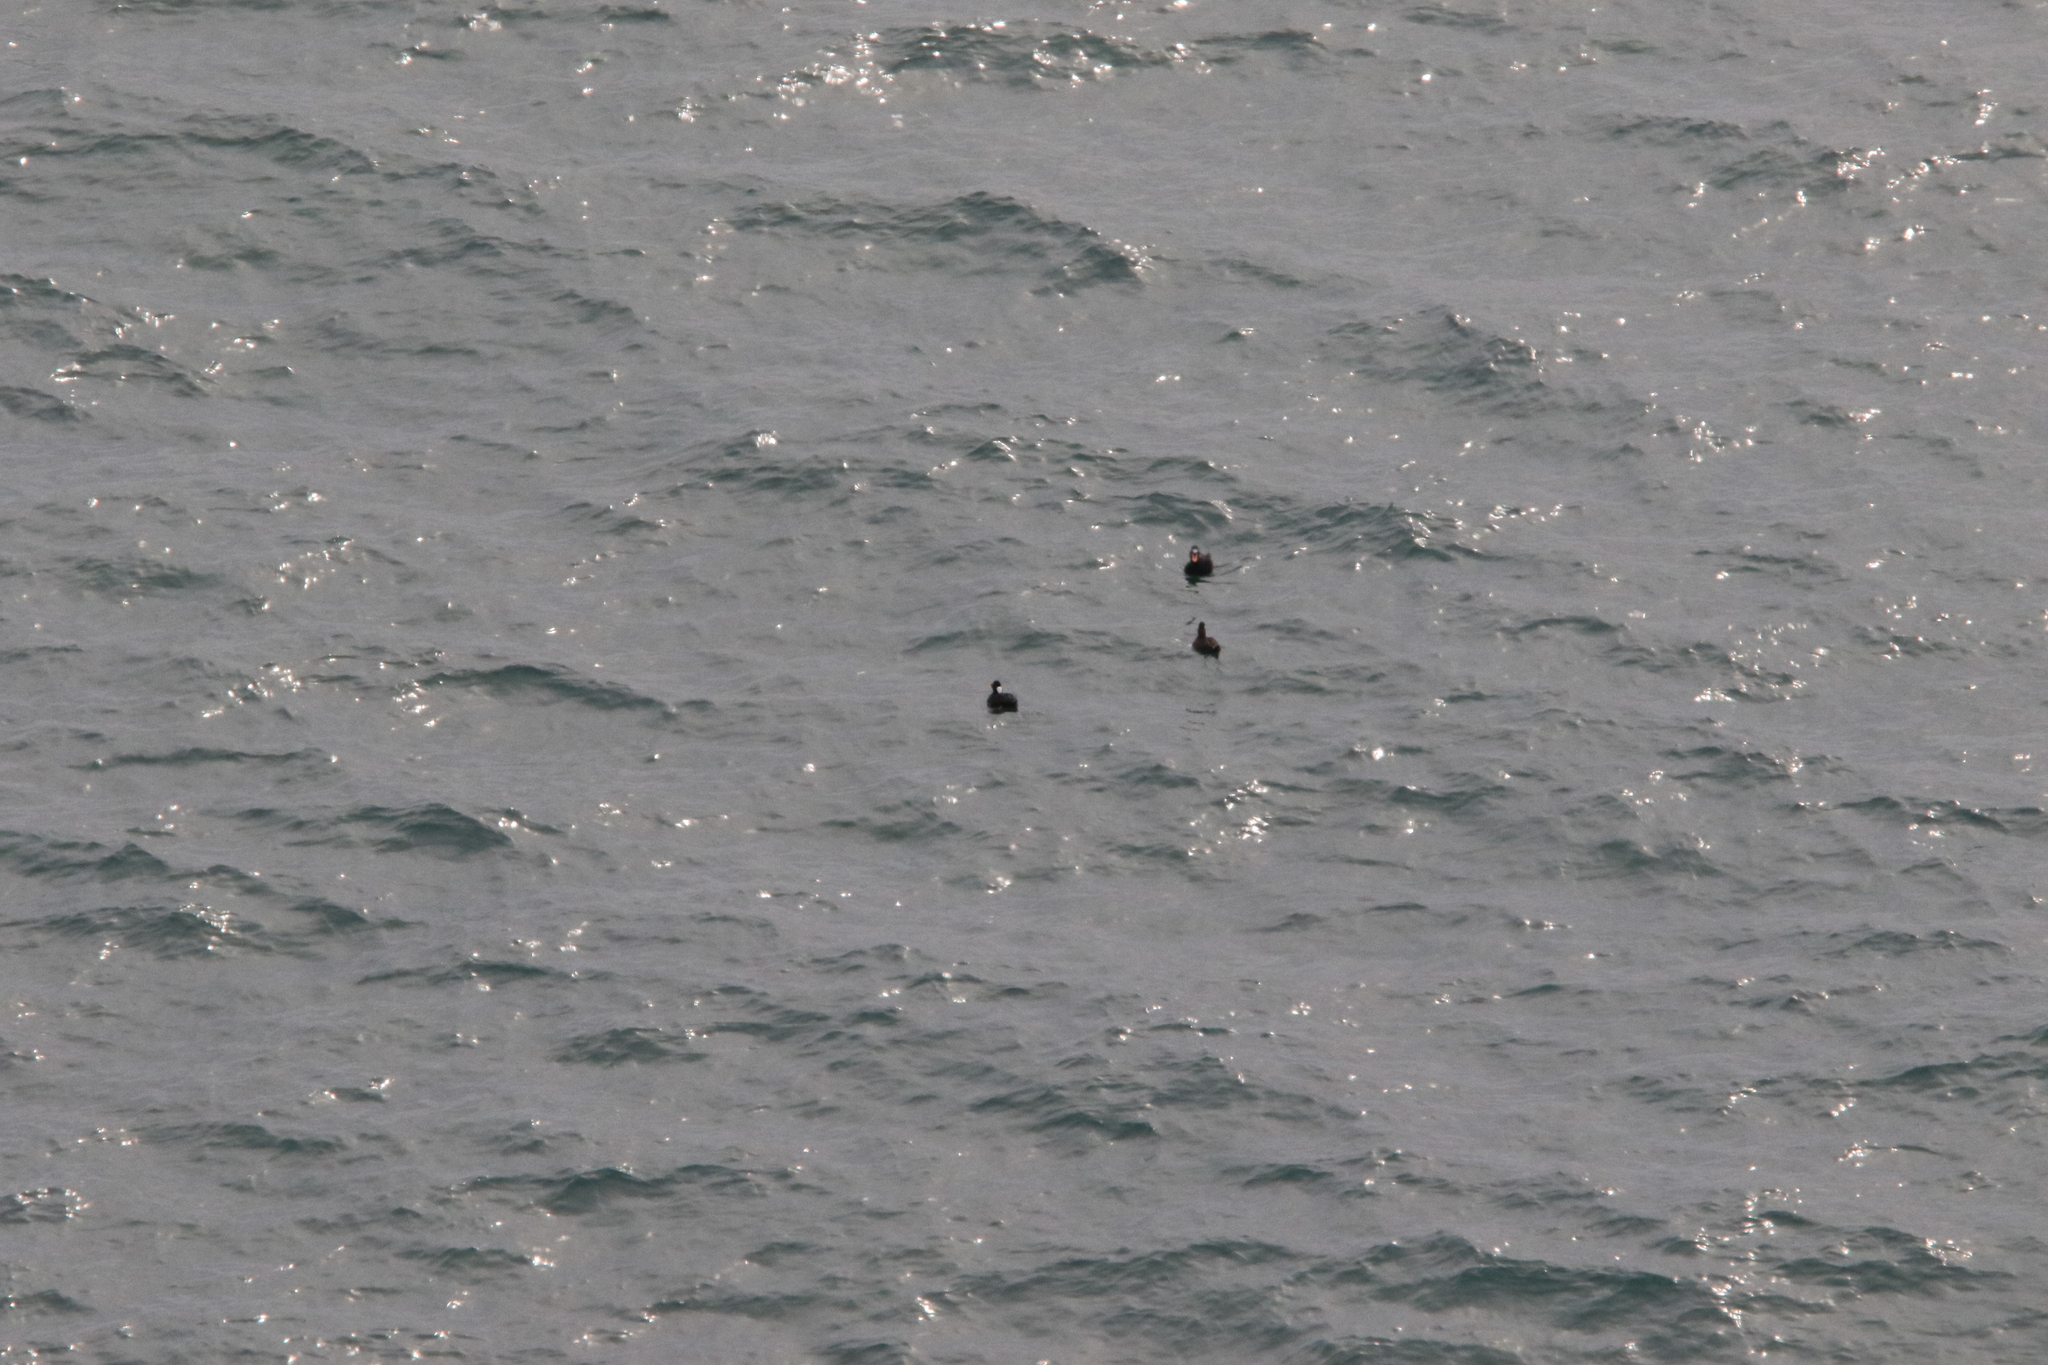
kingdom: Animalia
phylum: Chordata
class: Aves
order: Anseriformes
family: Anatidae
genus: Melanitta
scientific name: Melanitta perspicillata
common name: Surf scoter
